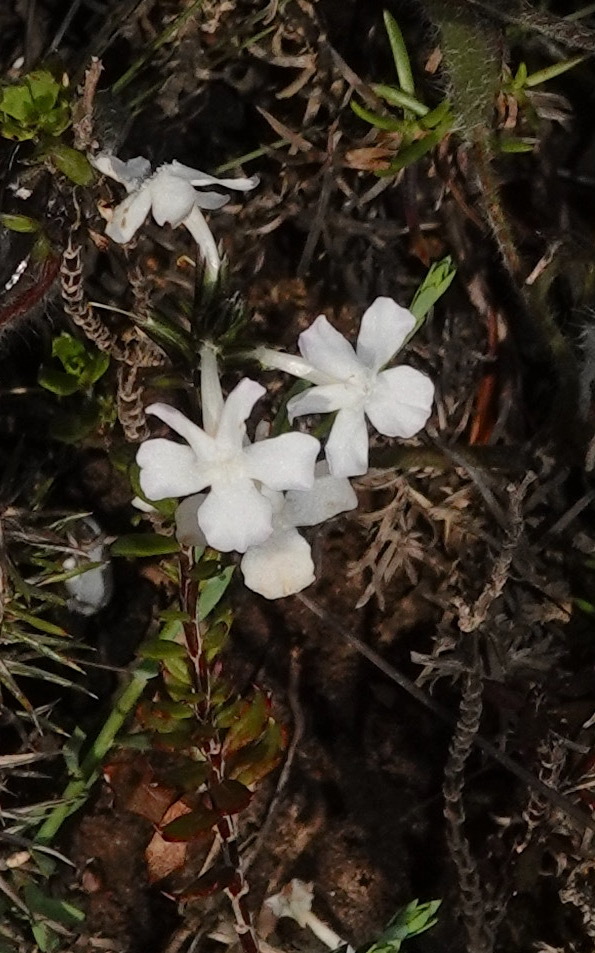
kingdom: Plantae
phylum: Tracheophyta
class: Magnoliopsida
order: Lamiales
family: Verbenaceae
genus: Chascanum
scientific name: Chascanum cernuum
